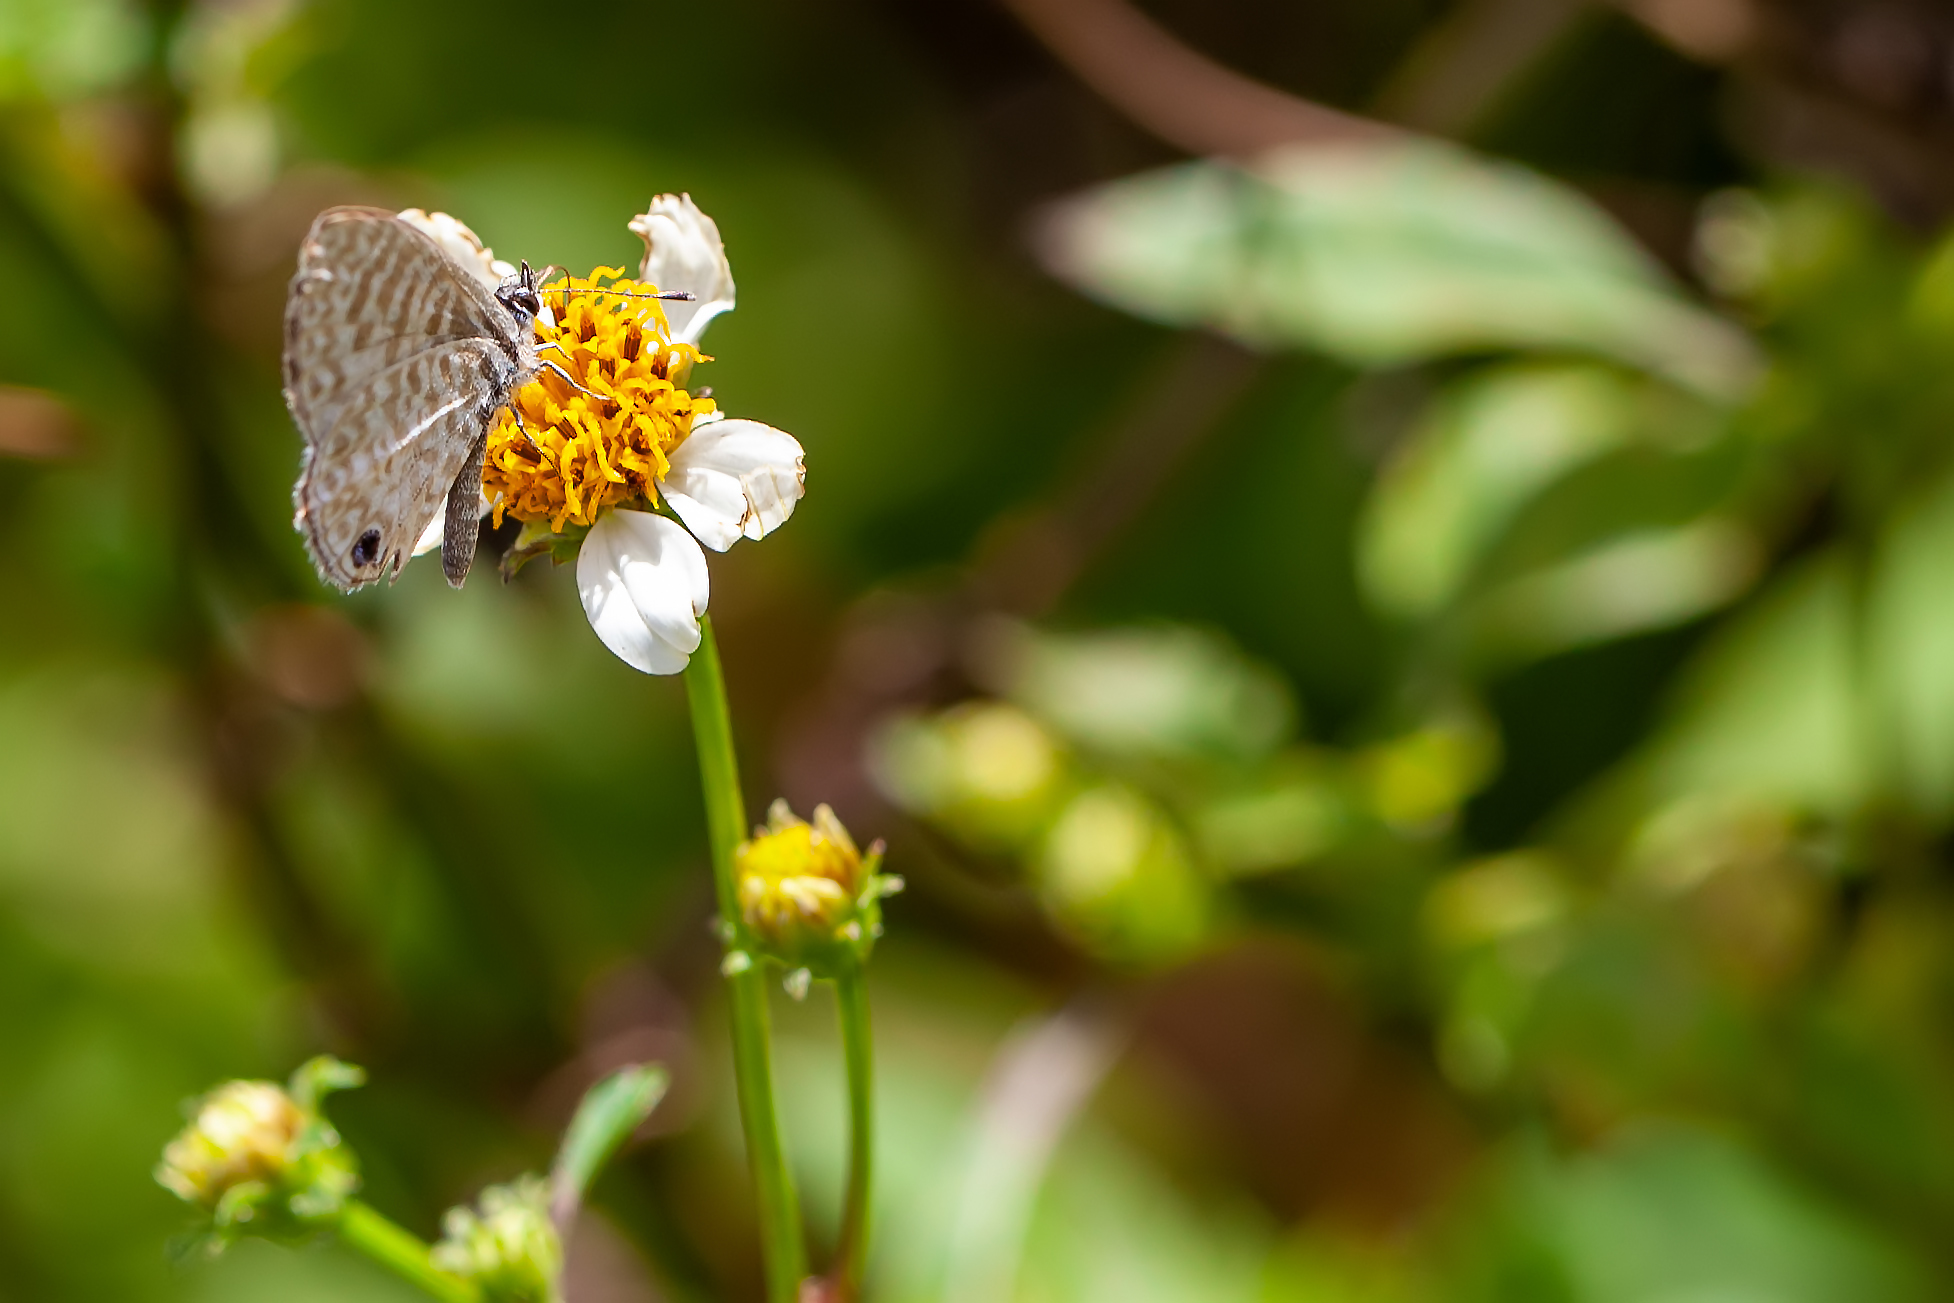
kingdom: Animalia
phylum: Arthropoda
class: Insecta
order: Lepidoptera
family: Lycaenidae
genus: Leptotes
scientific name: Leptotes cassius
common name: Cassius blue
